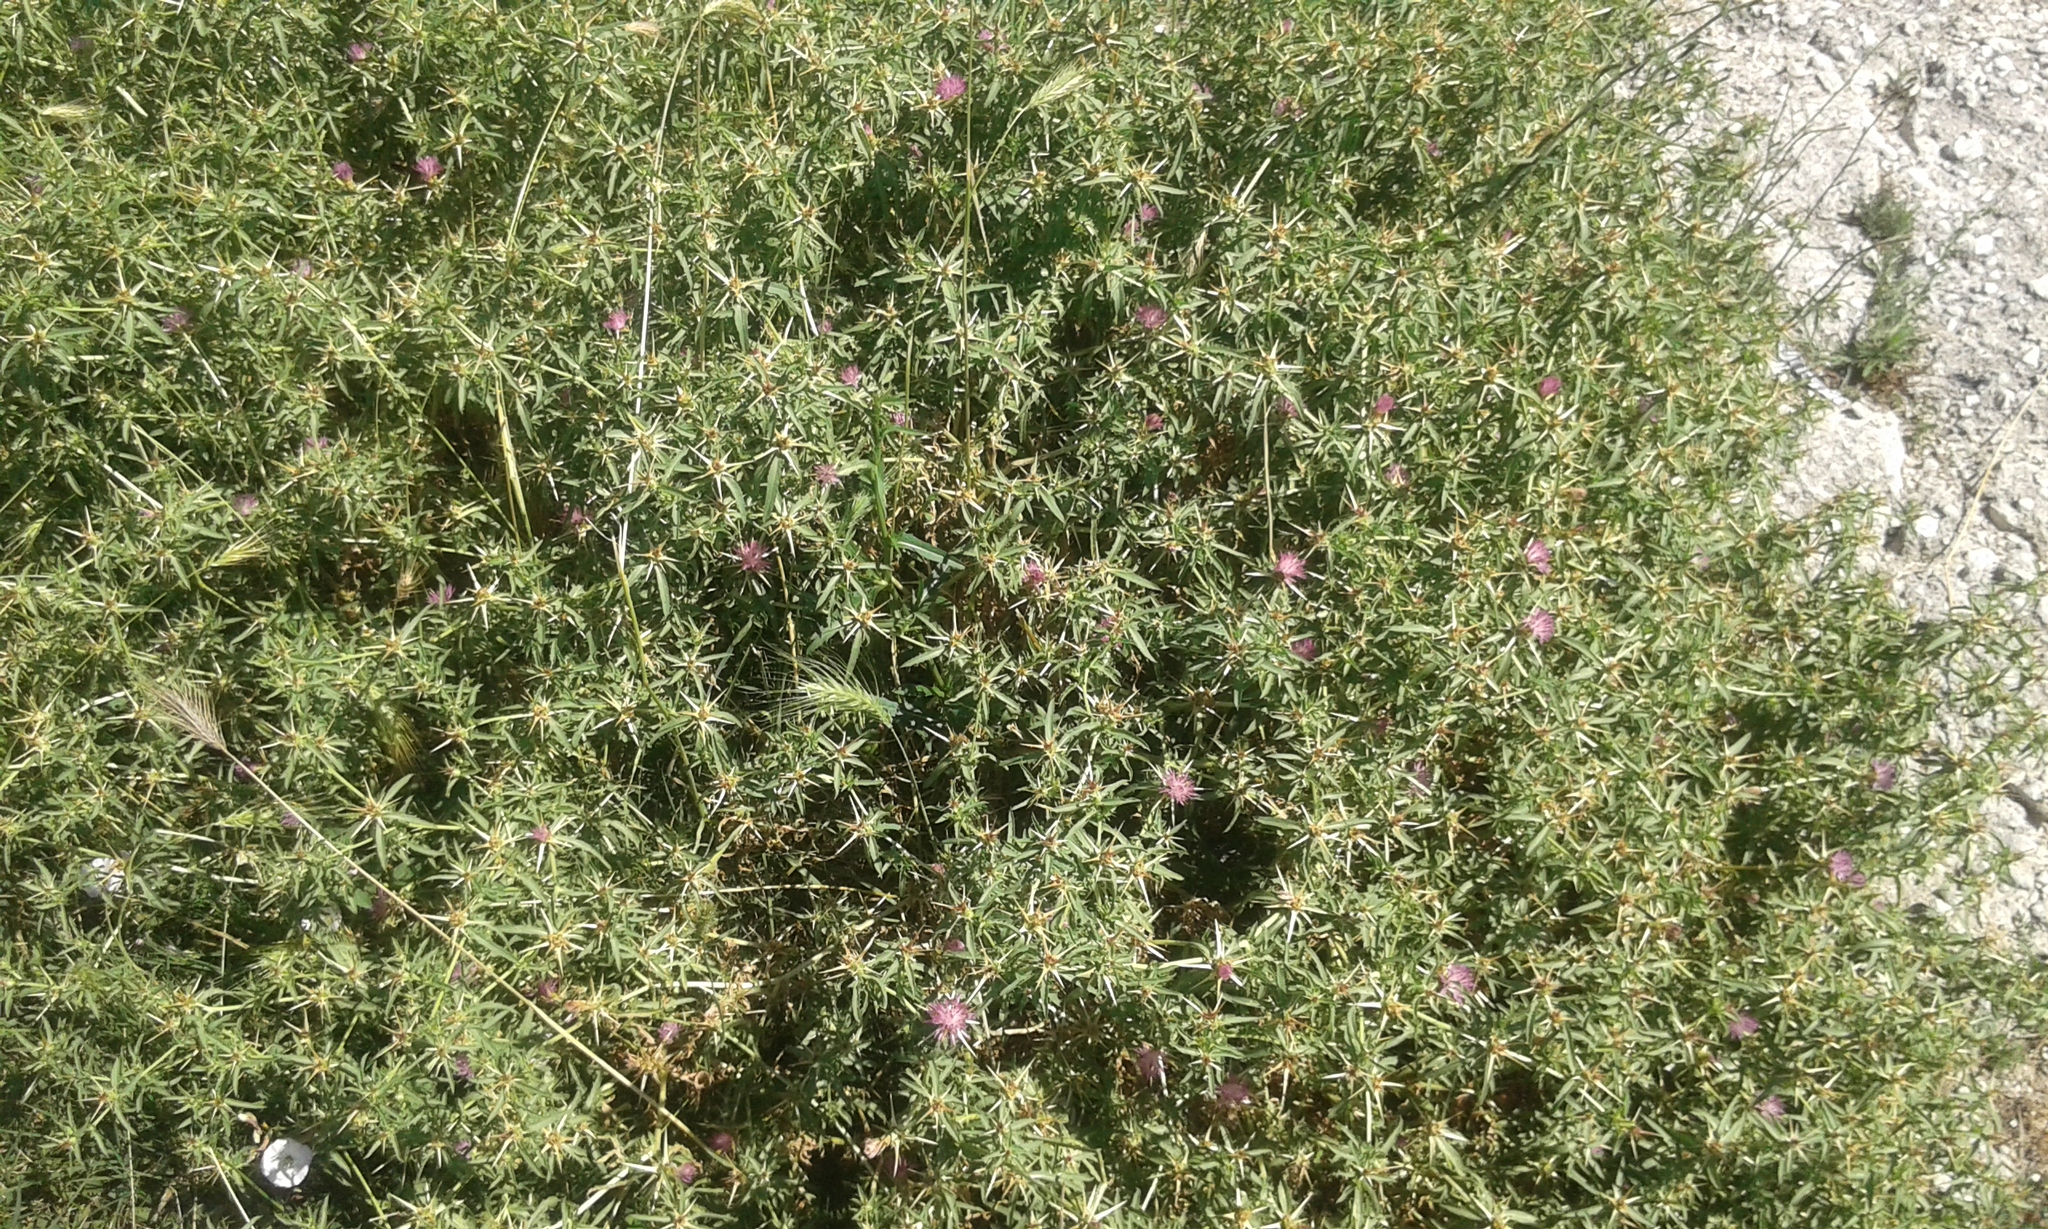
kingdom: Plantae
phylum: Tracheophyta
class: Magnoliopsida
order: Asterales
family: Asteraceae
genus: Centaurea
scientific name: Centaurea calcitrapa
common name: Red star-thistle
